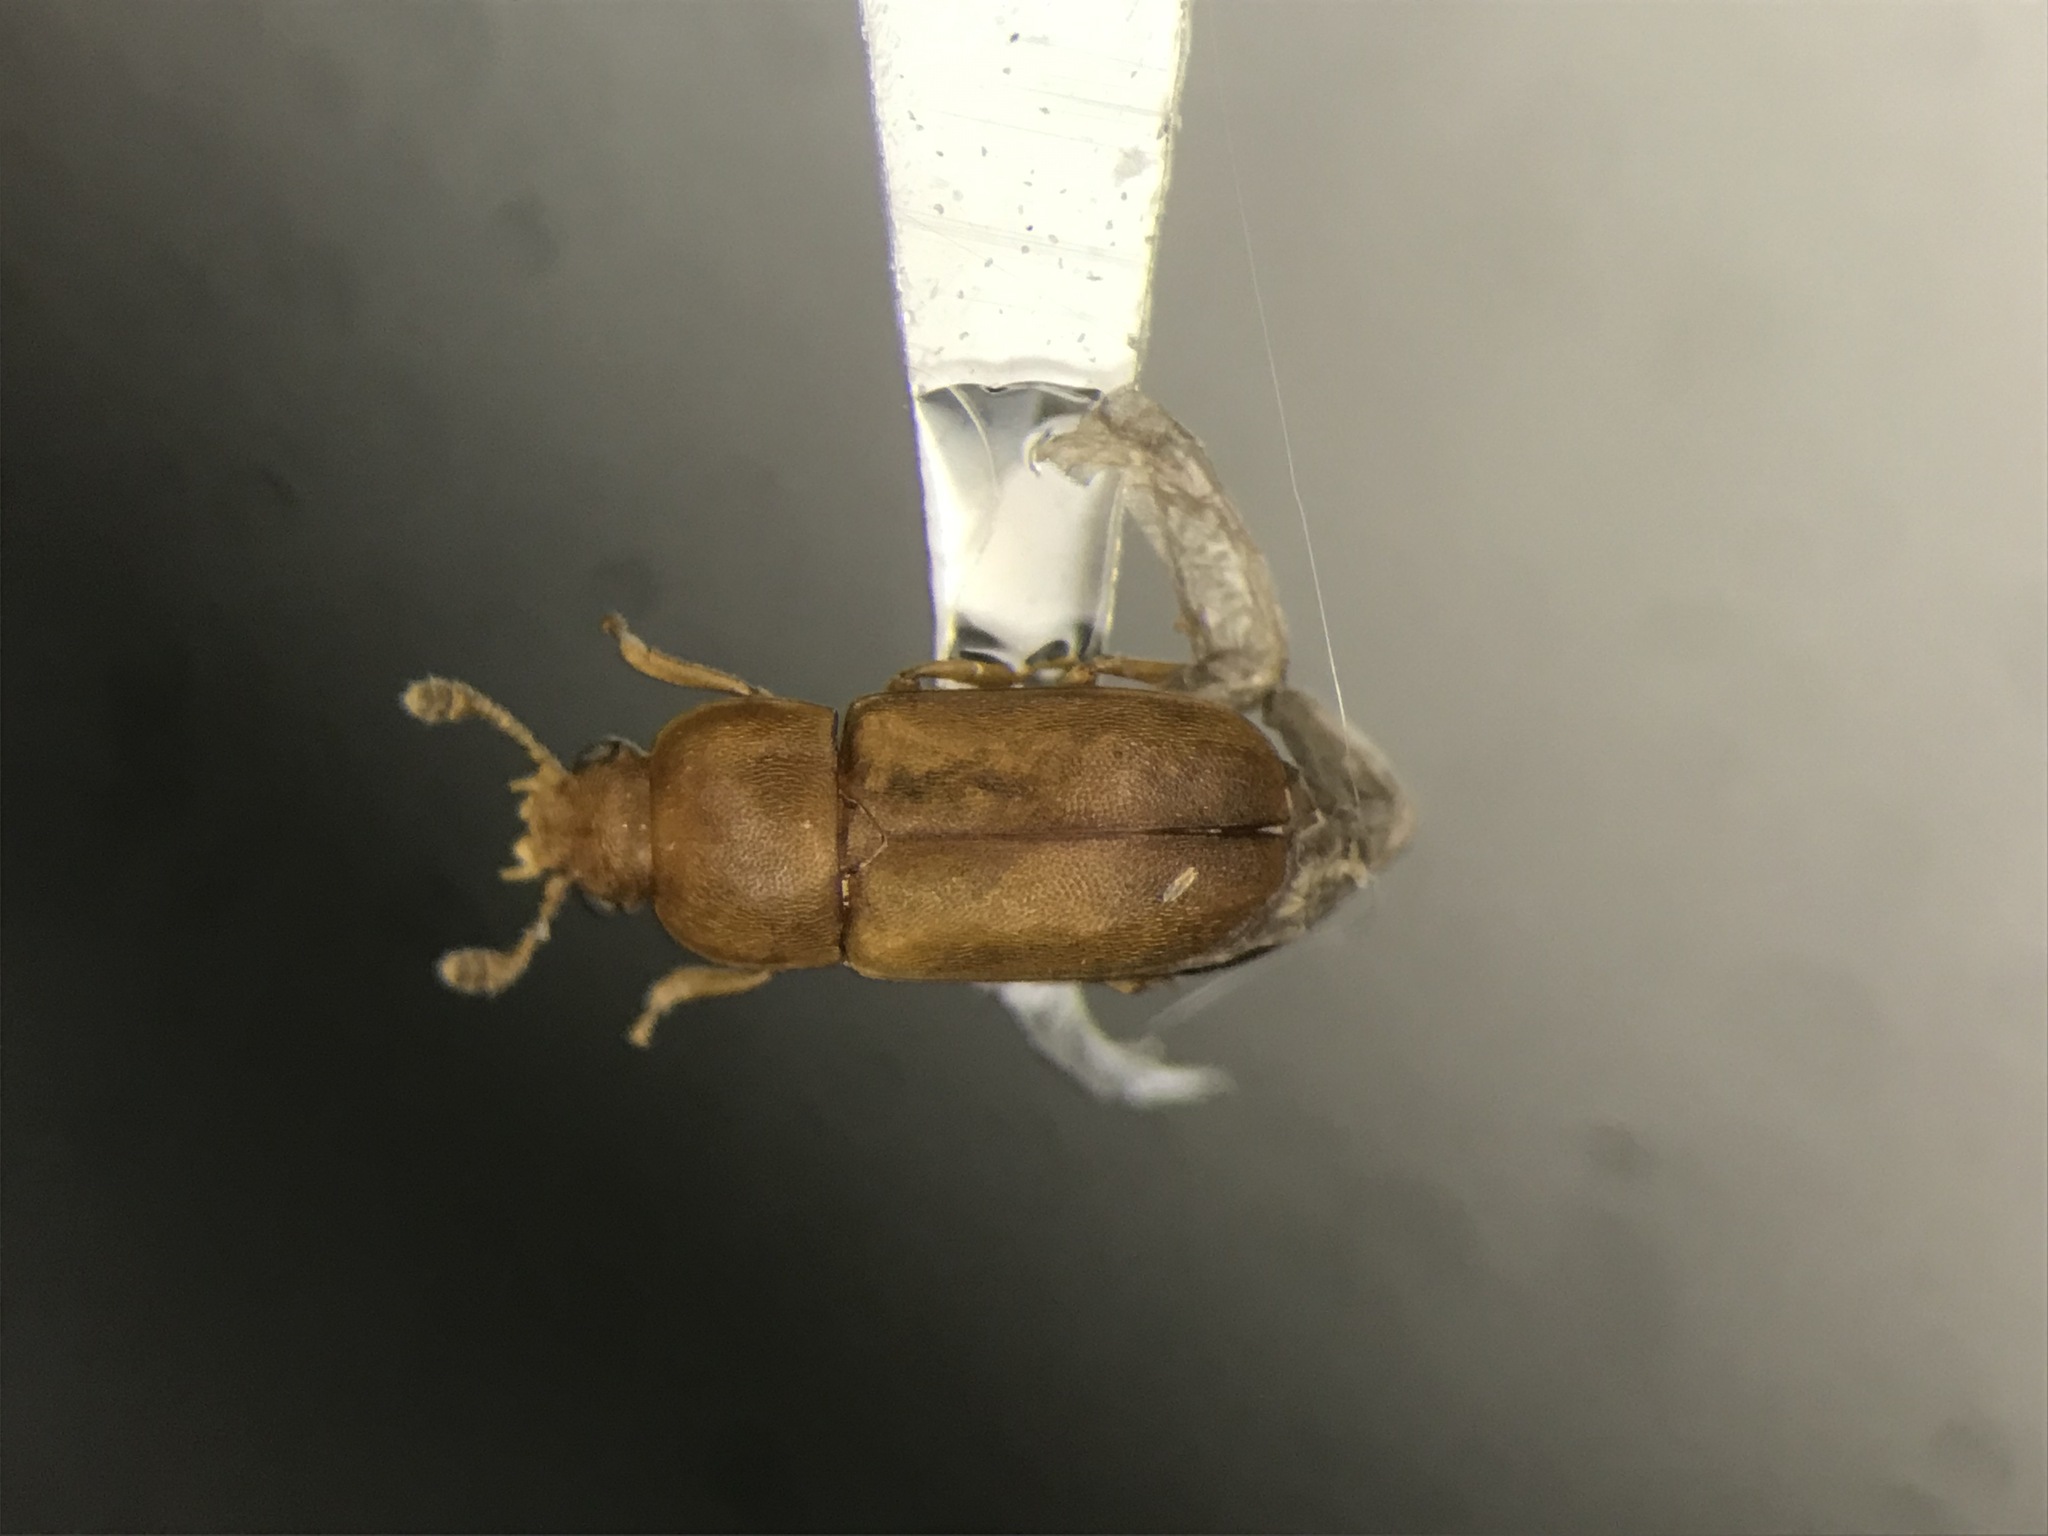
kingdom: Animalia
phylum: Arthropoda
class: Insecta
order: Coleoptera
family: Nitidulidae
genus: Epuraea
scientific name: Epuraea linearis
